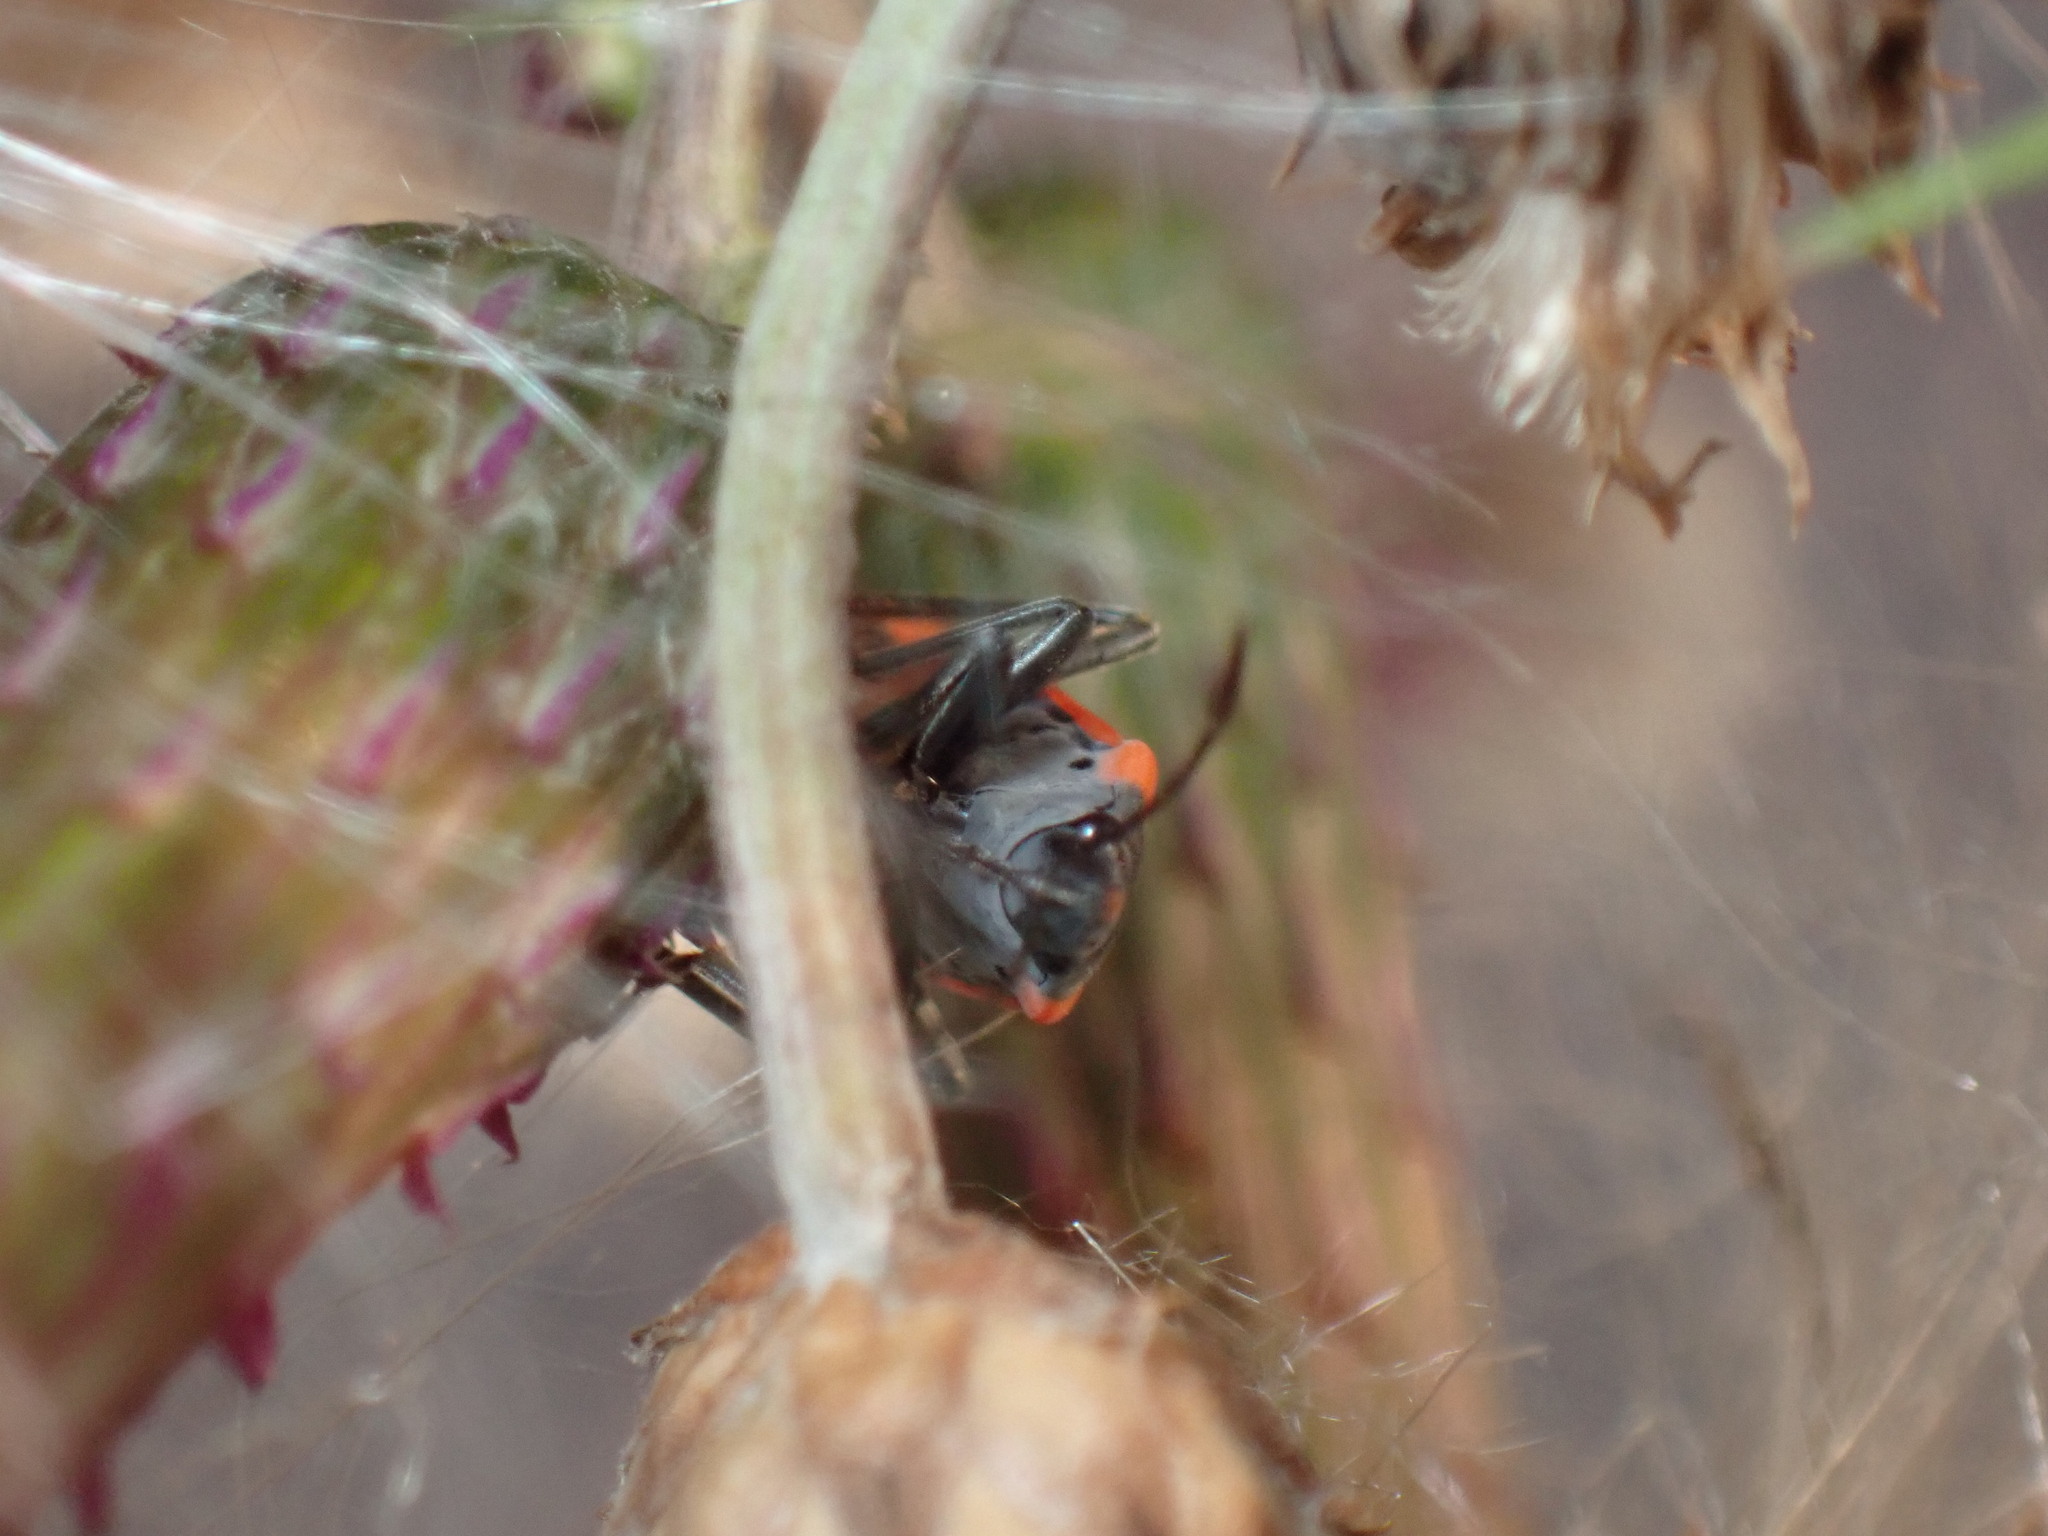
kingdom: Animalia
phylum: Arthropoda
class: Insecta
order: Hemiptera
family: Lygaeidae
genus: Lygaeus
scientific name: Lygaeus kalmii
